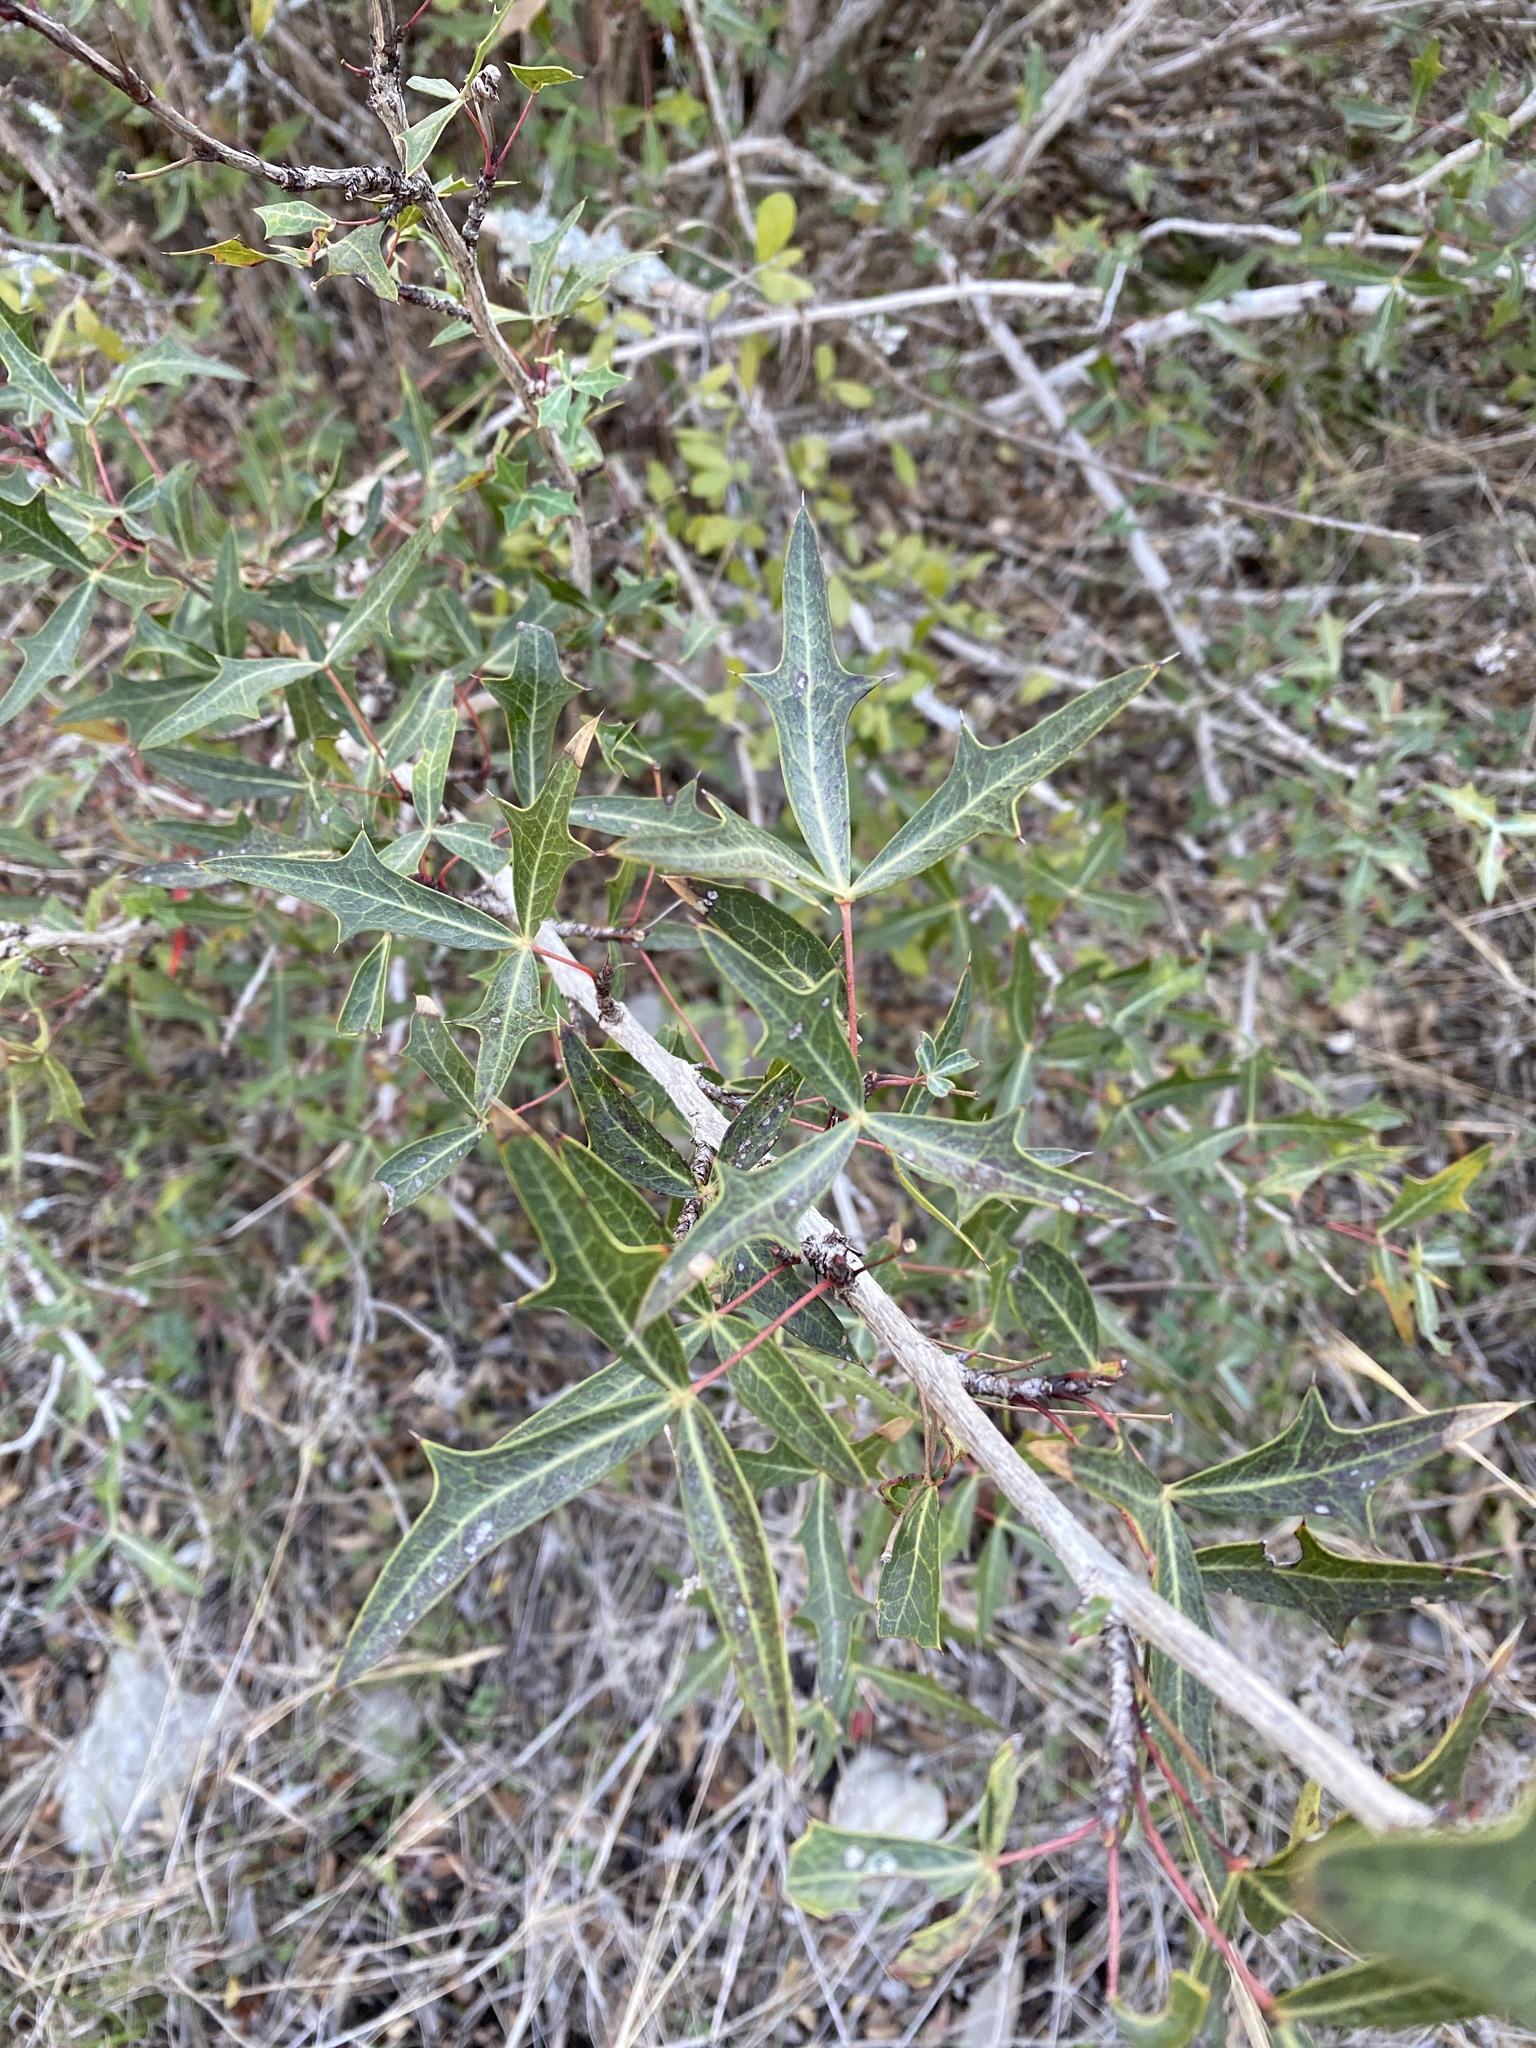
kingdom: Plantae
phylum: Tracheophyta
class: Magnoliopsida
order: Ranunculales
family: Berberidaceae
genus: Alloberberis
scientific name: Alloberberis trifoliolata
